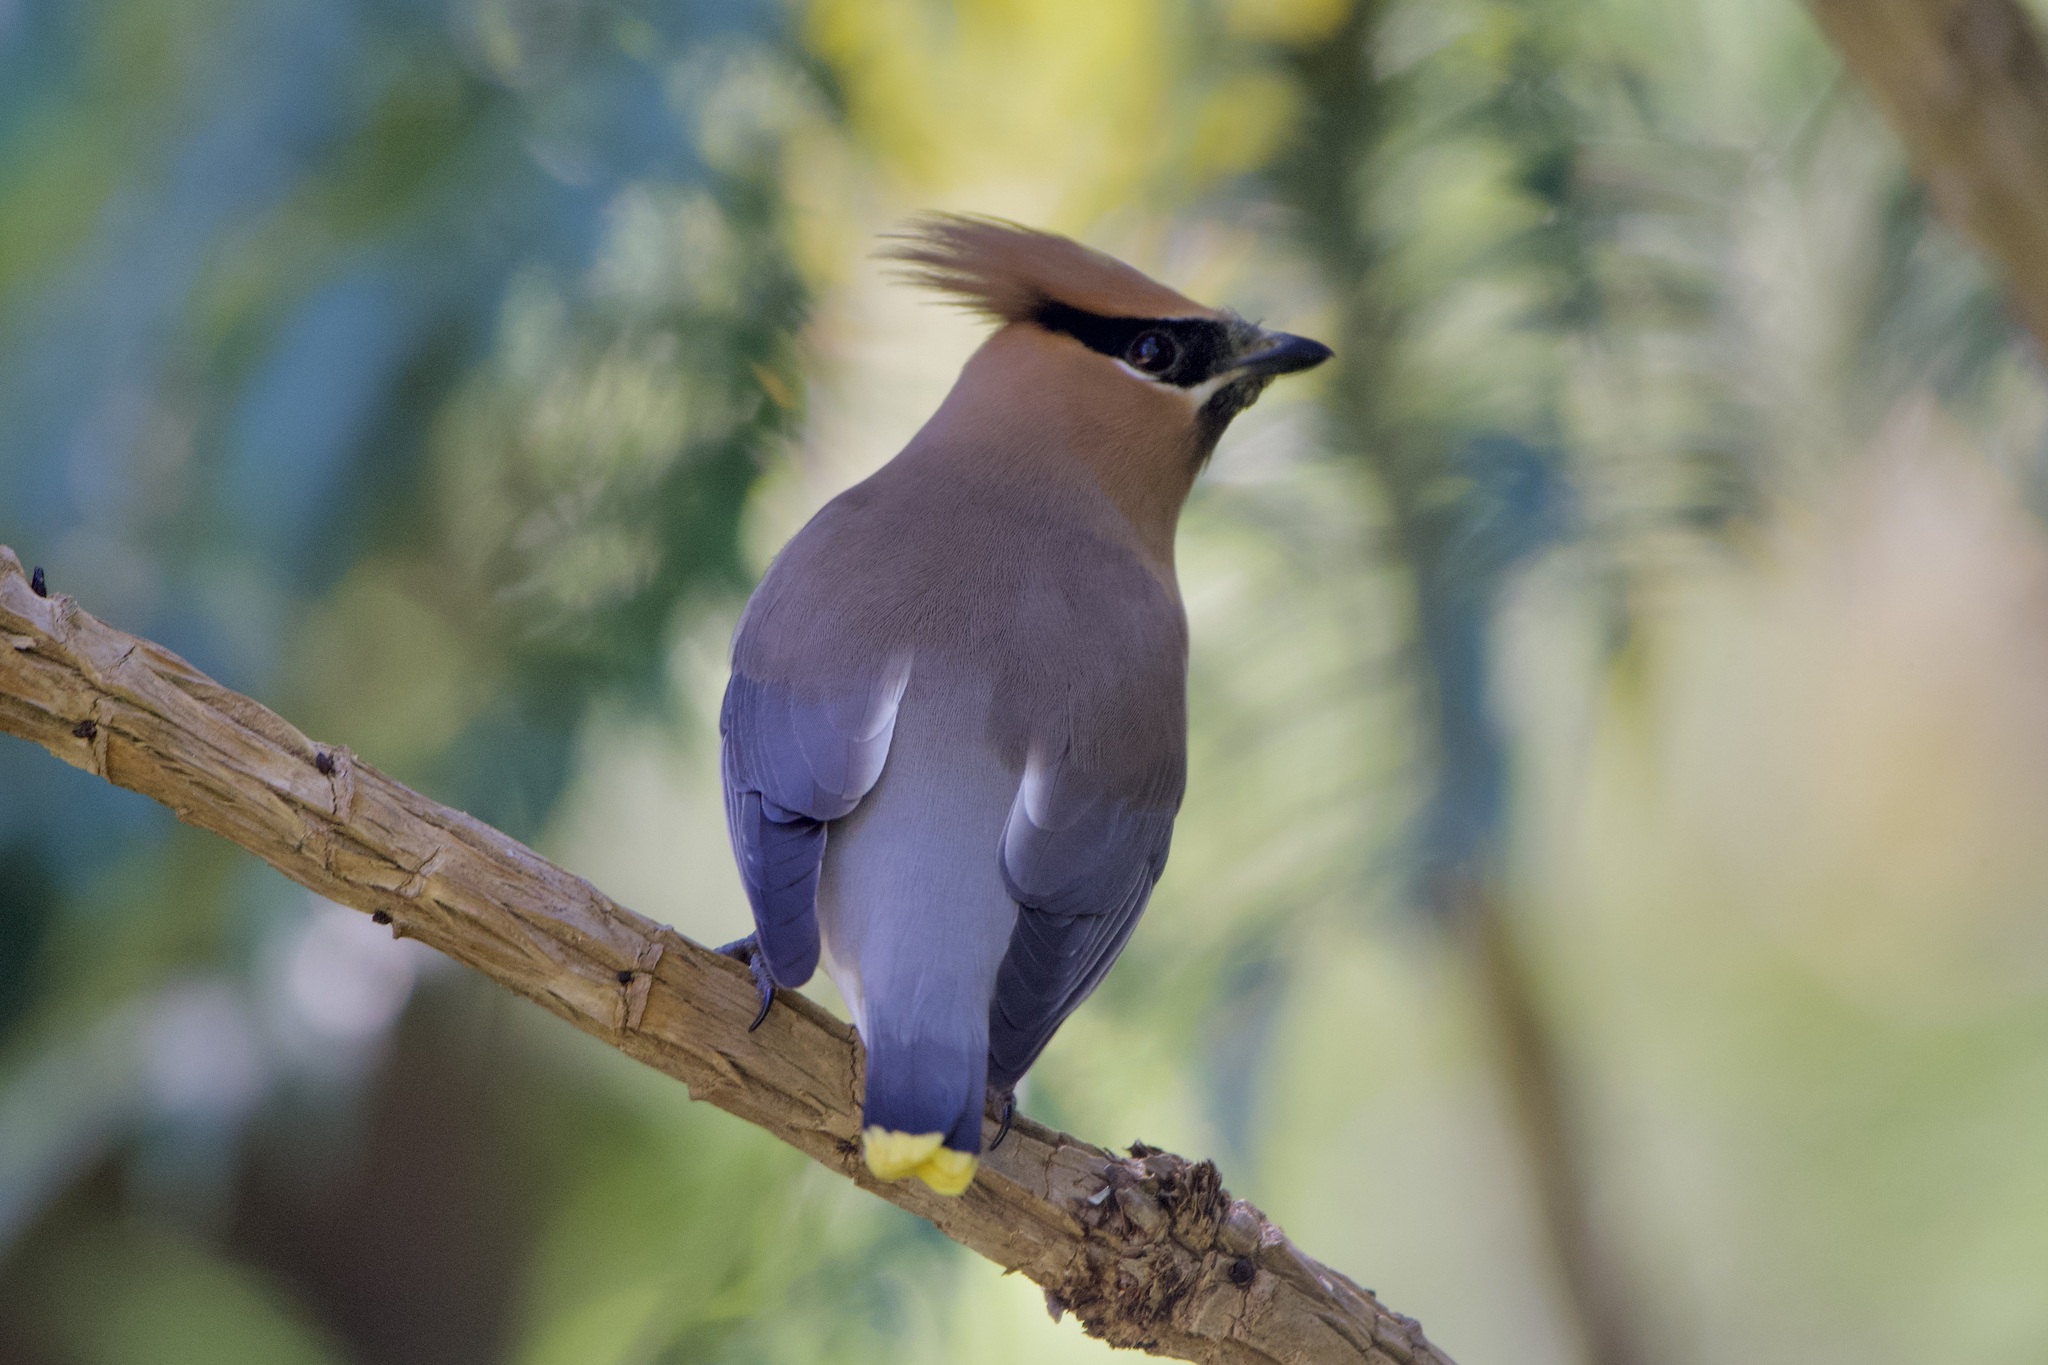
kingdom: Animalia
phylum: Chordata
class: Aves
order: Passeriformes
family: Bombycillidae
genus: Bombycilla
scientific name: Bombycilla cedrorum
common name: Cedar waxwing
